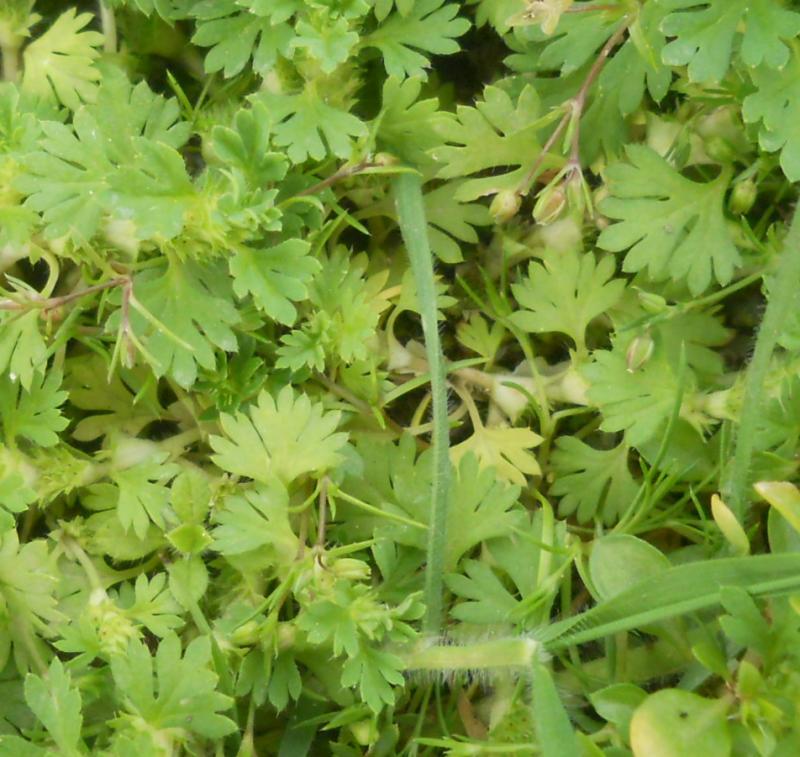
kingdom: Plantae
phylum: Tracheophyta
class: Magnoliopsida
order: Rosales
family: Rosaceae
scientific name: Rosaceae
